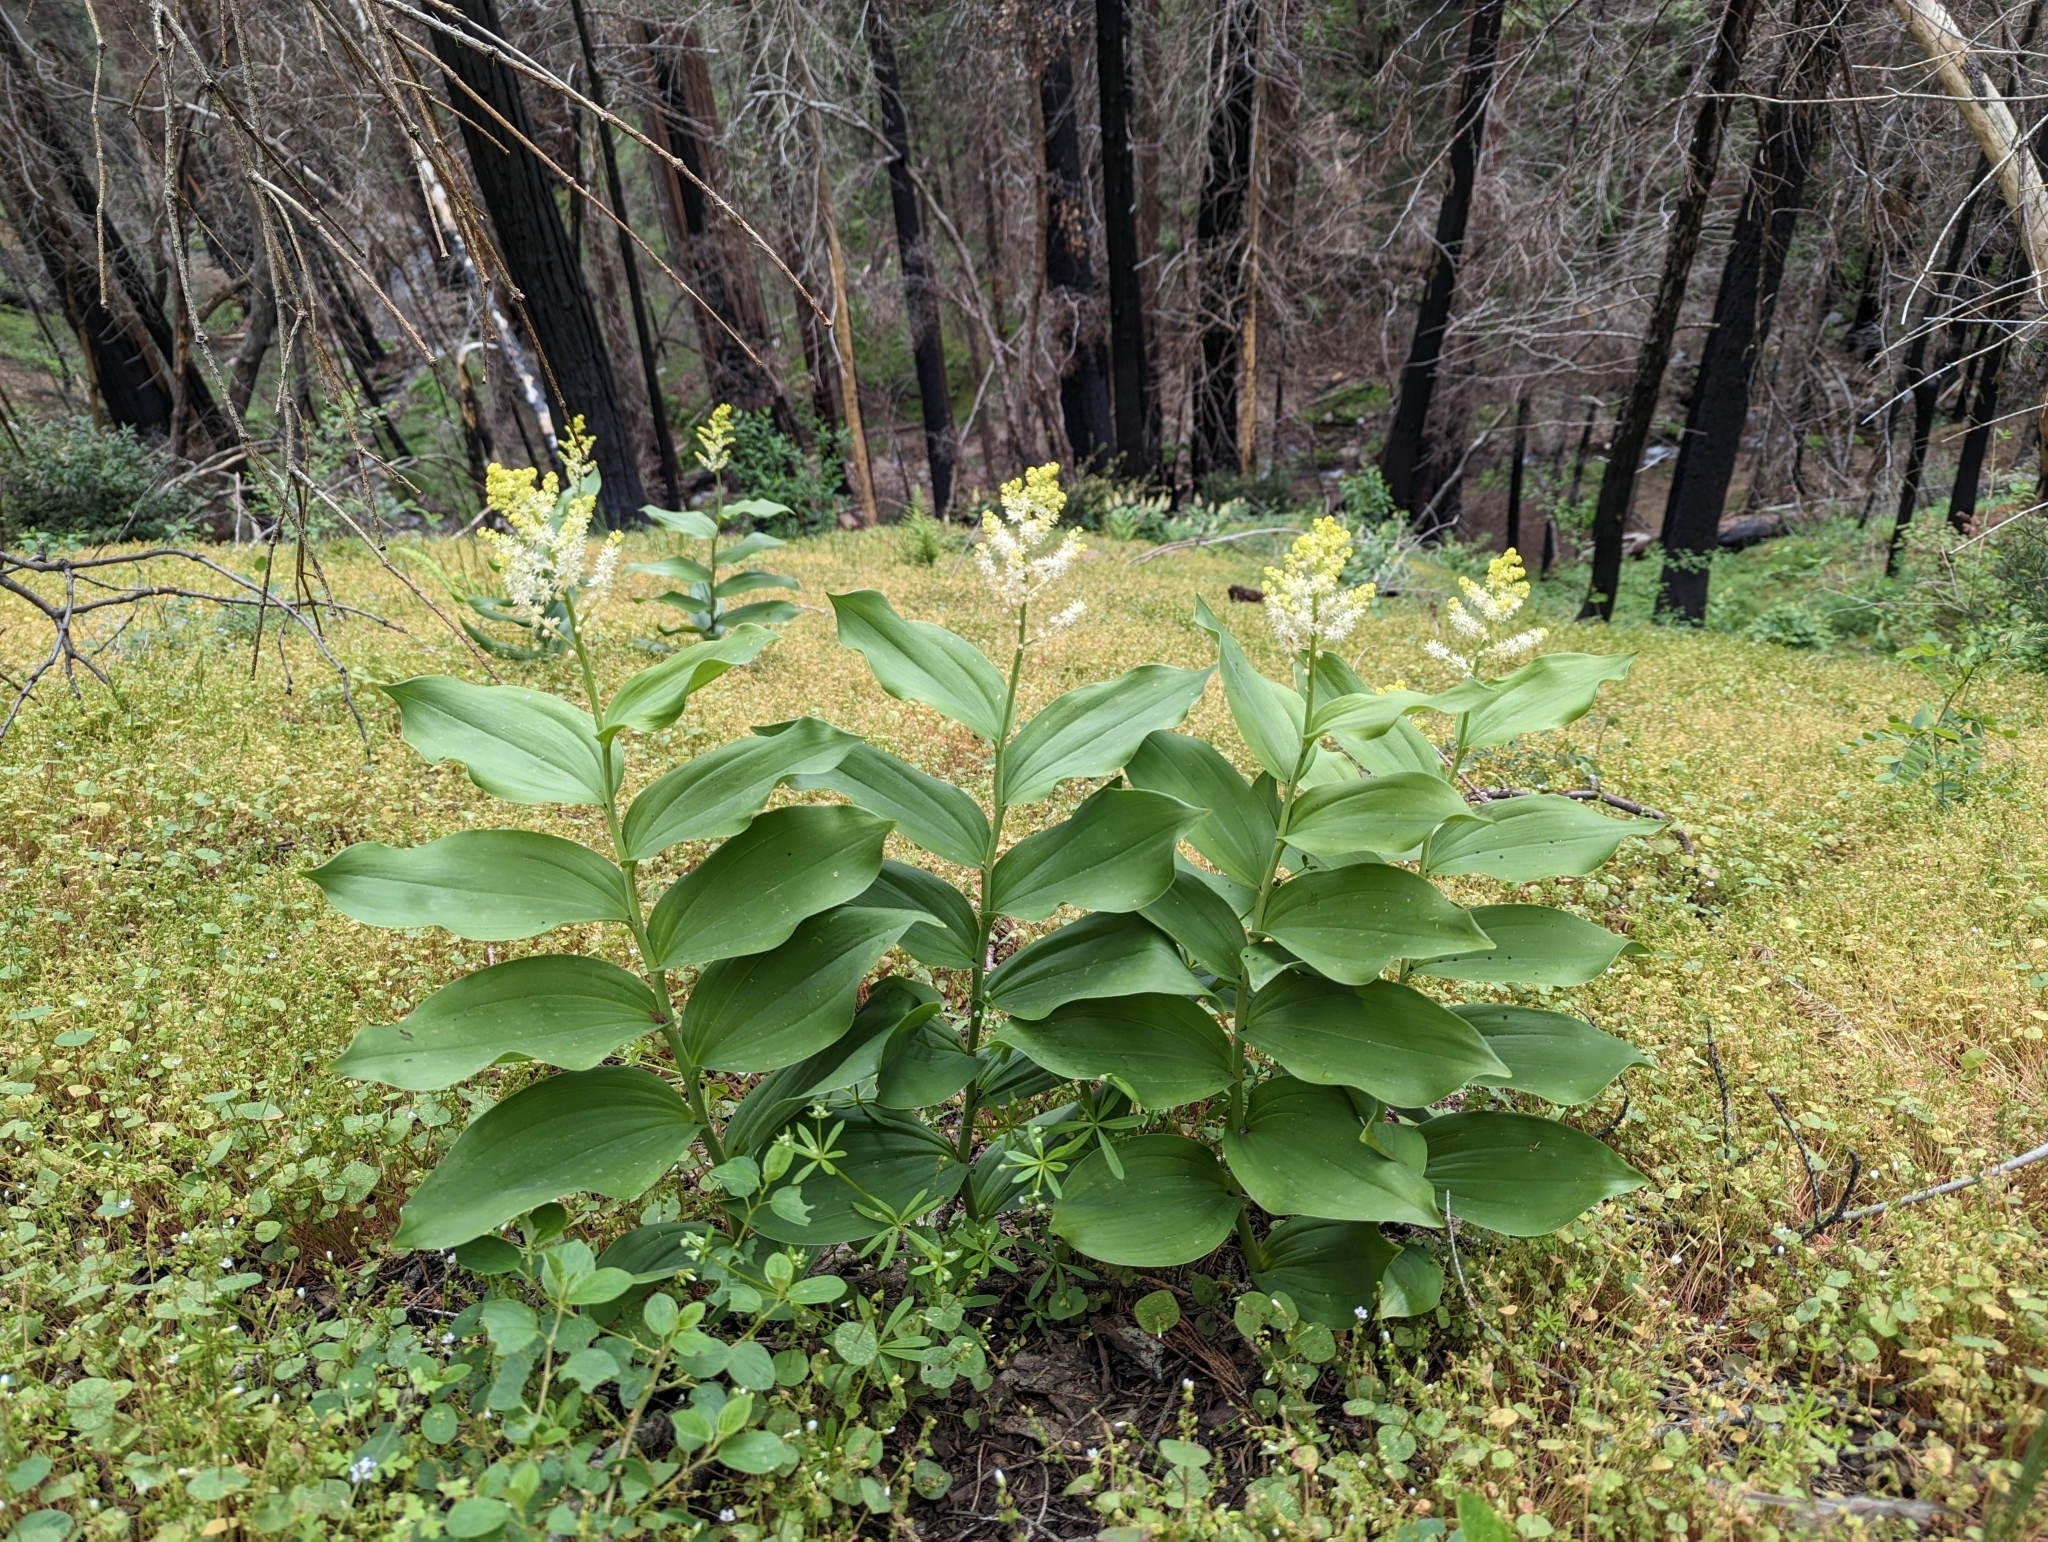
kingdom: Plantae
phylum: Tracheophyta
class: Liliopsida
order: Asparagales
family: Asparagaceae
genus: Maianthemum
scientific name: Maianthemum racemosum
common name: False spikenard
